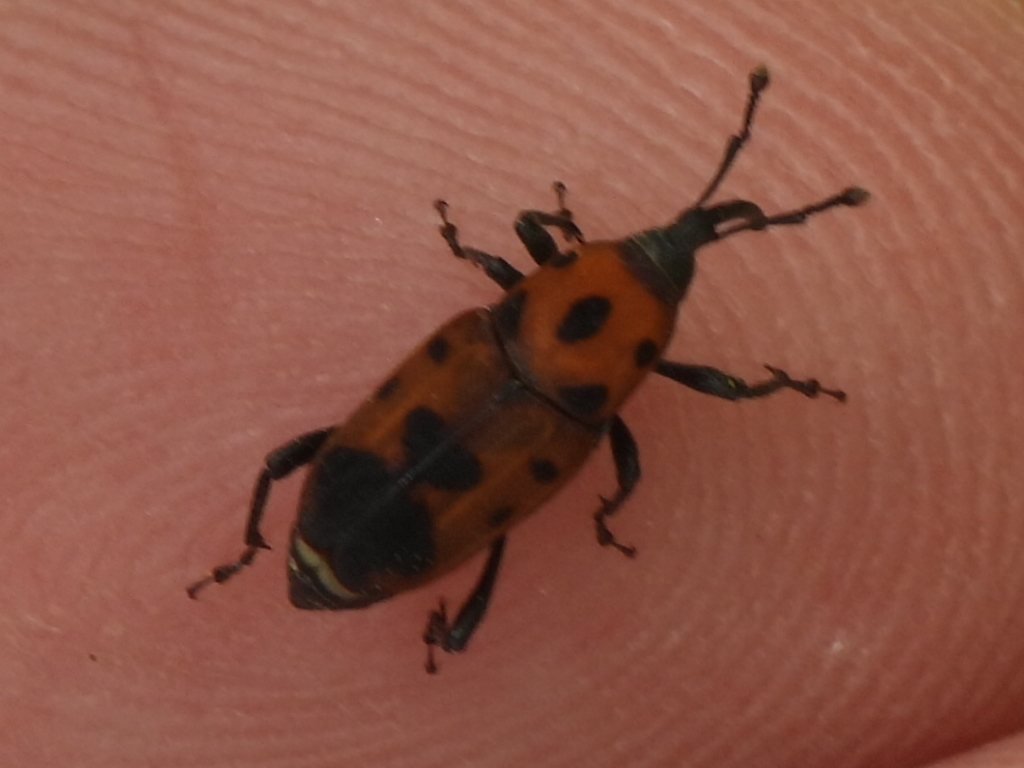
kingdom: Animalia
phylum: Arthropoda
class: Insecta
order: Coleoptera
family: Dryophthoridae
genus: Rhodobaenus
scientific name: Rhodobaenus quinquepunctatus
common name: Cocklebur weevil
